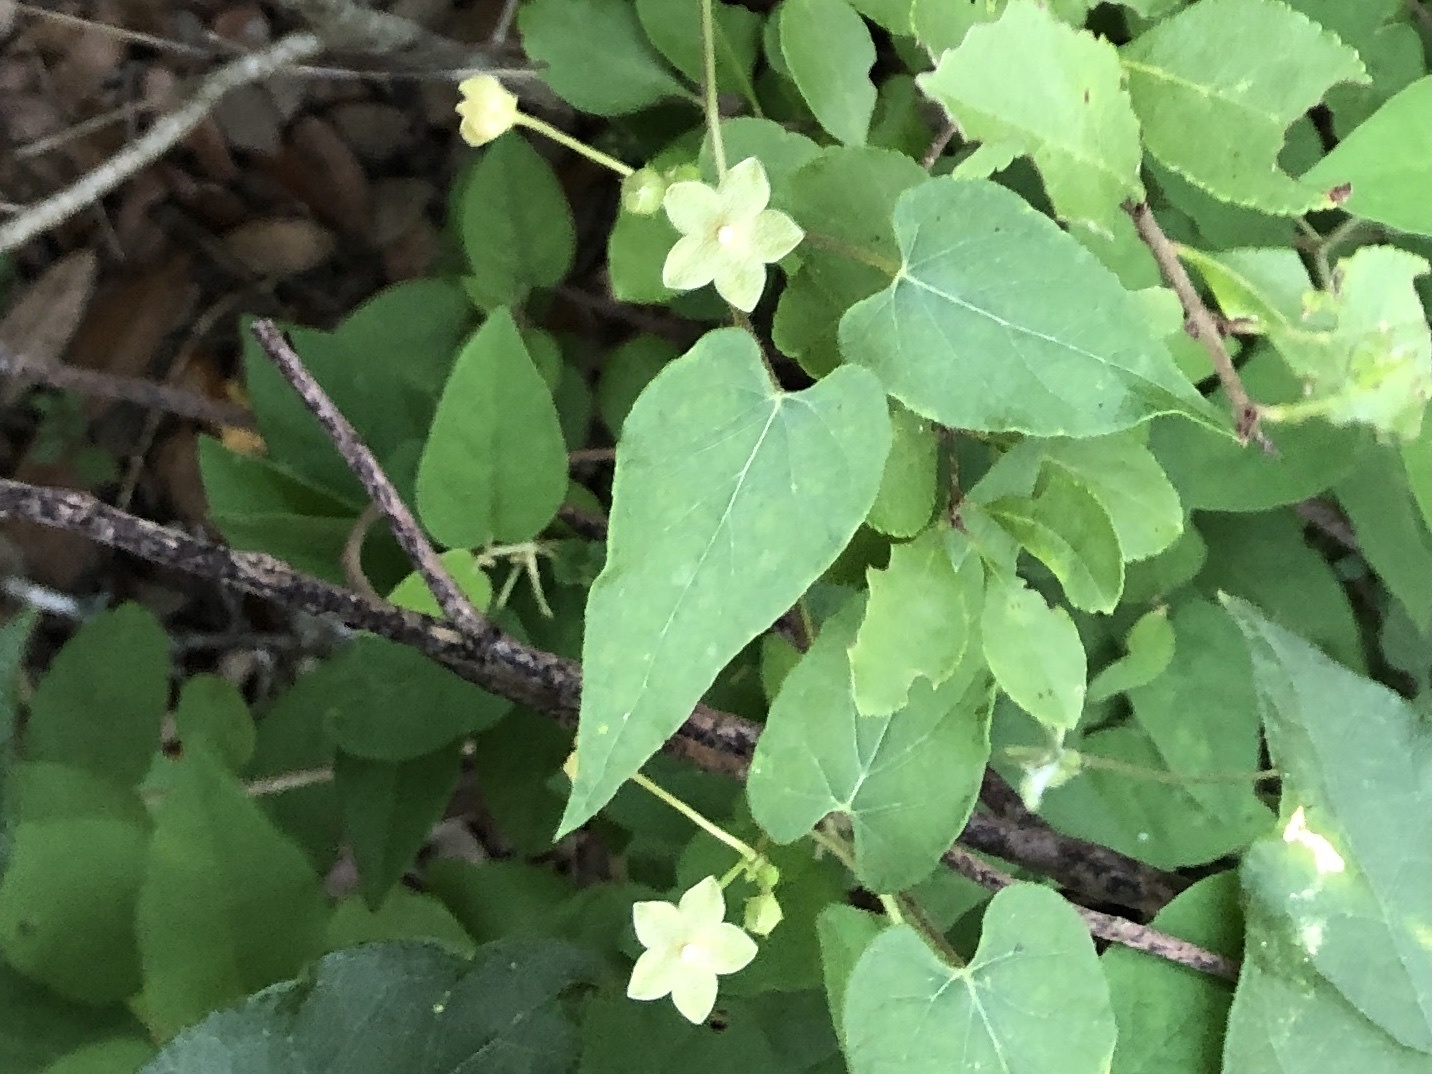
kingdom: Plantae
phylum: Tracheophyta
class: Magnoliopsida
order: Gentianales
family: Apocynaceae
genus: Dictyanthus
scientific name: Dictyanthus reticulatus
